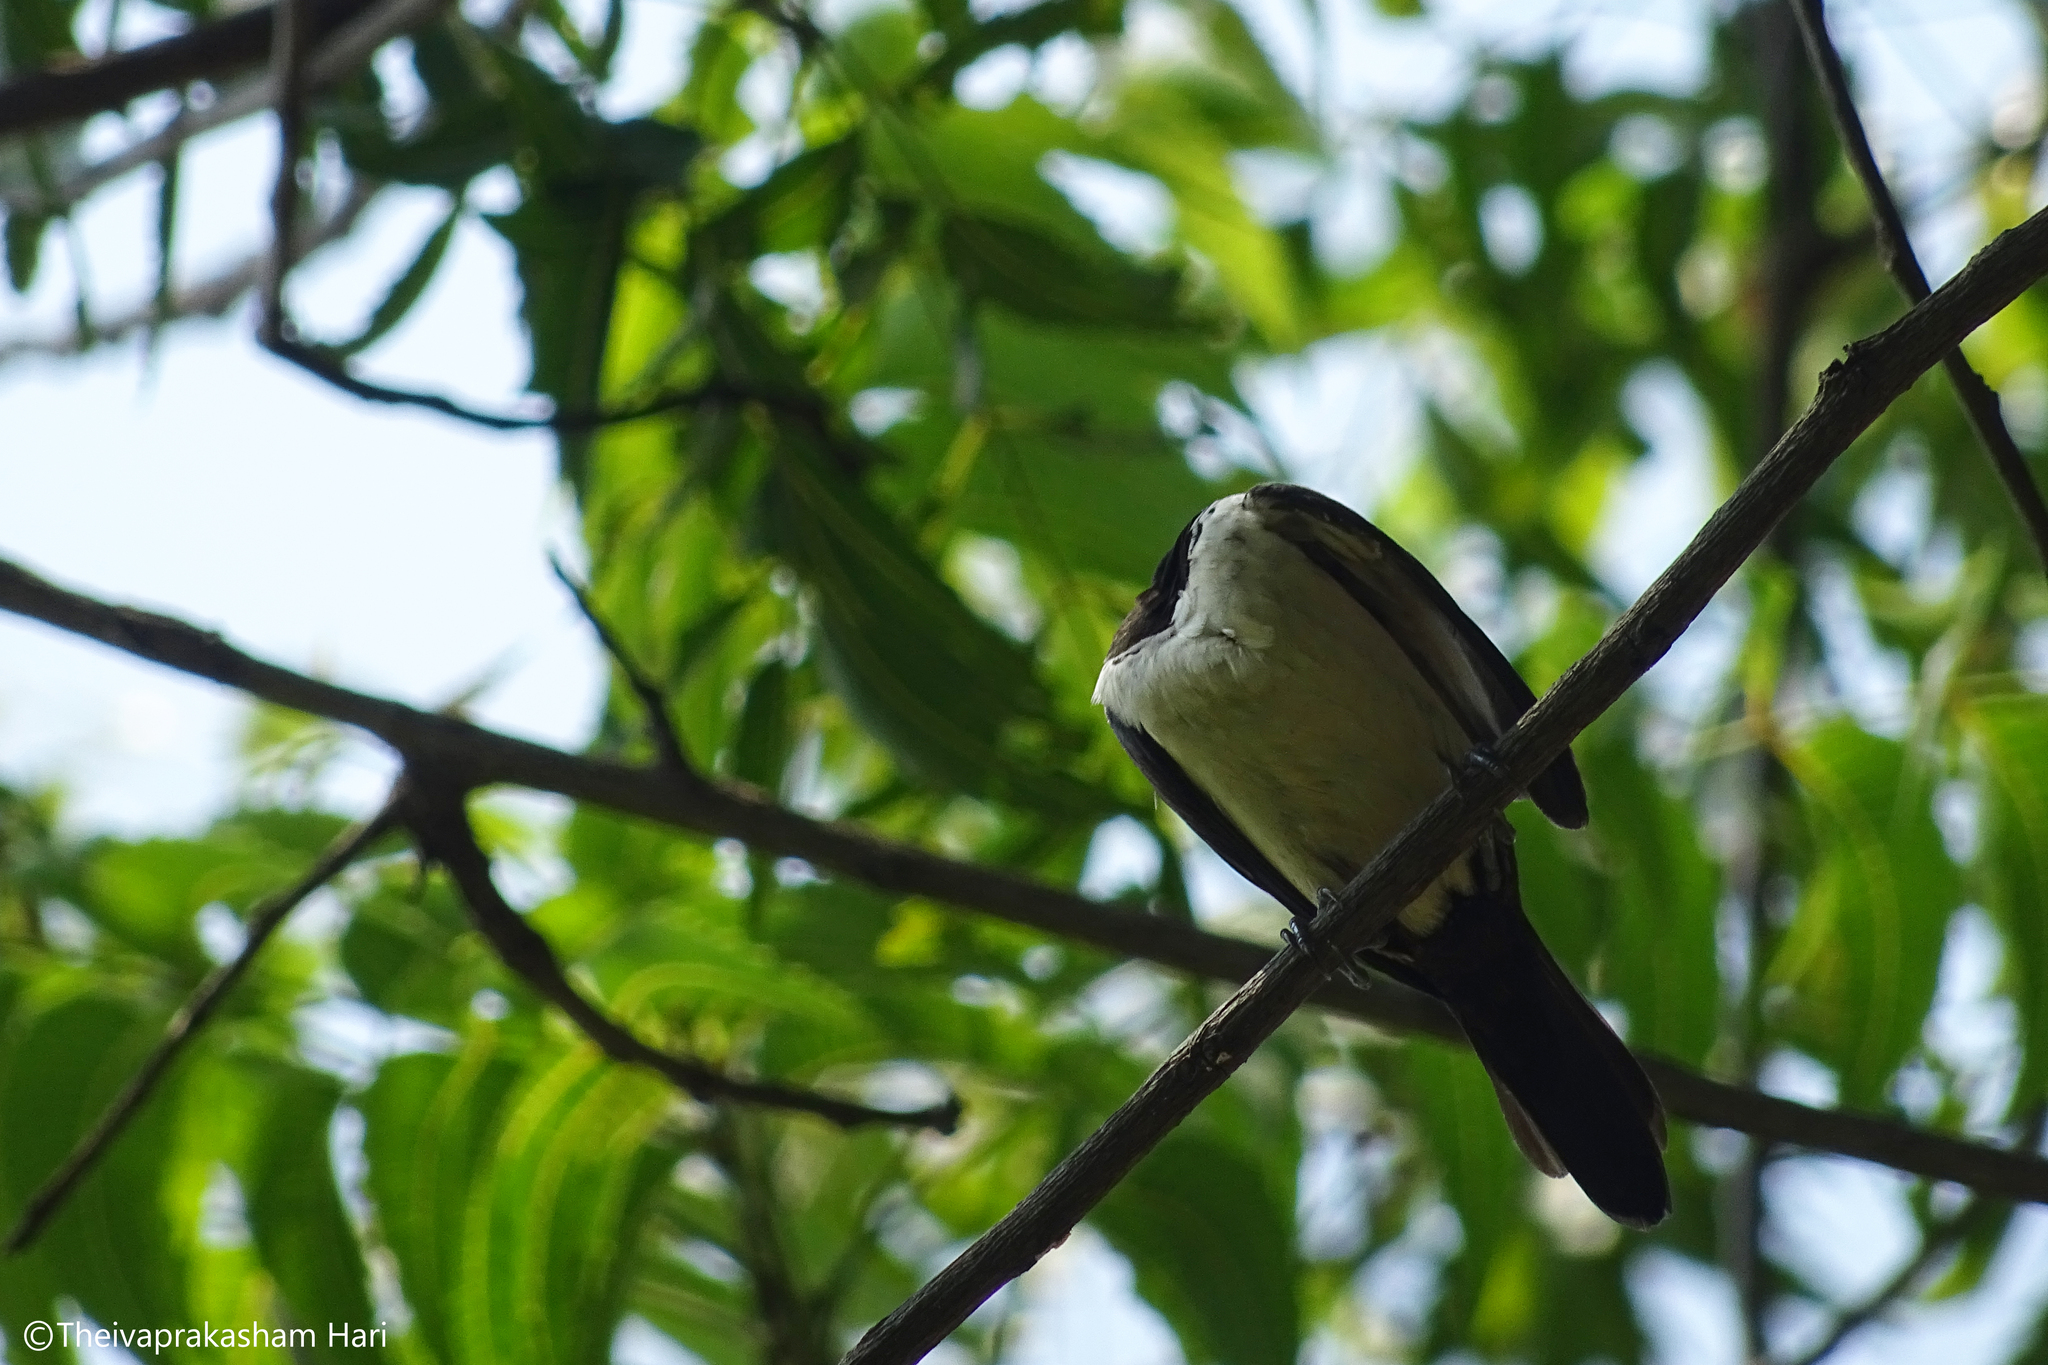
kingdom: Animalia
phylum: Chordata
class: Aves
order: Passeriformes
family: Estrildidae
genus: Lonchura
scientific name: Lonchura striata
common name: White-rumped munia
